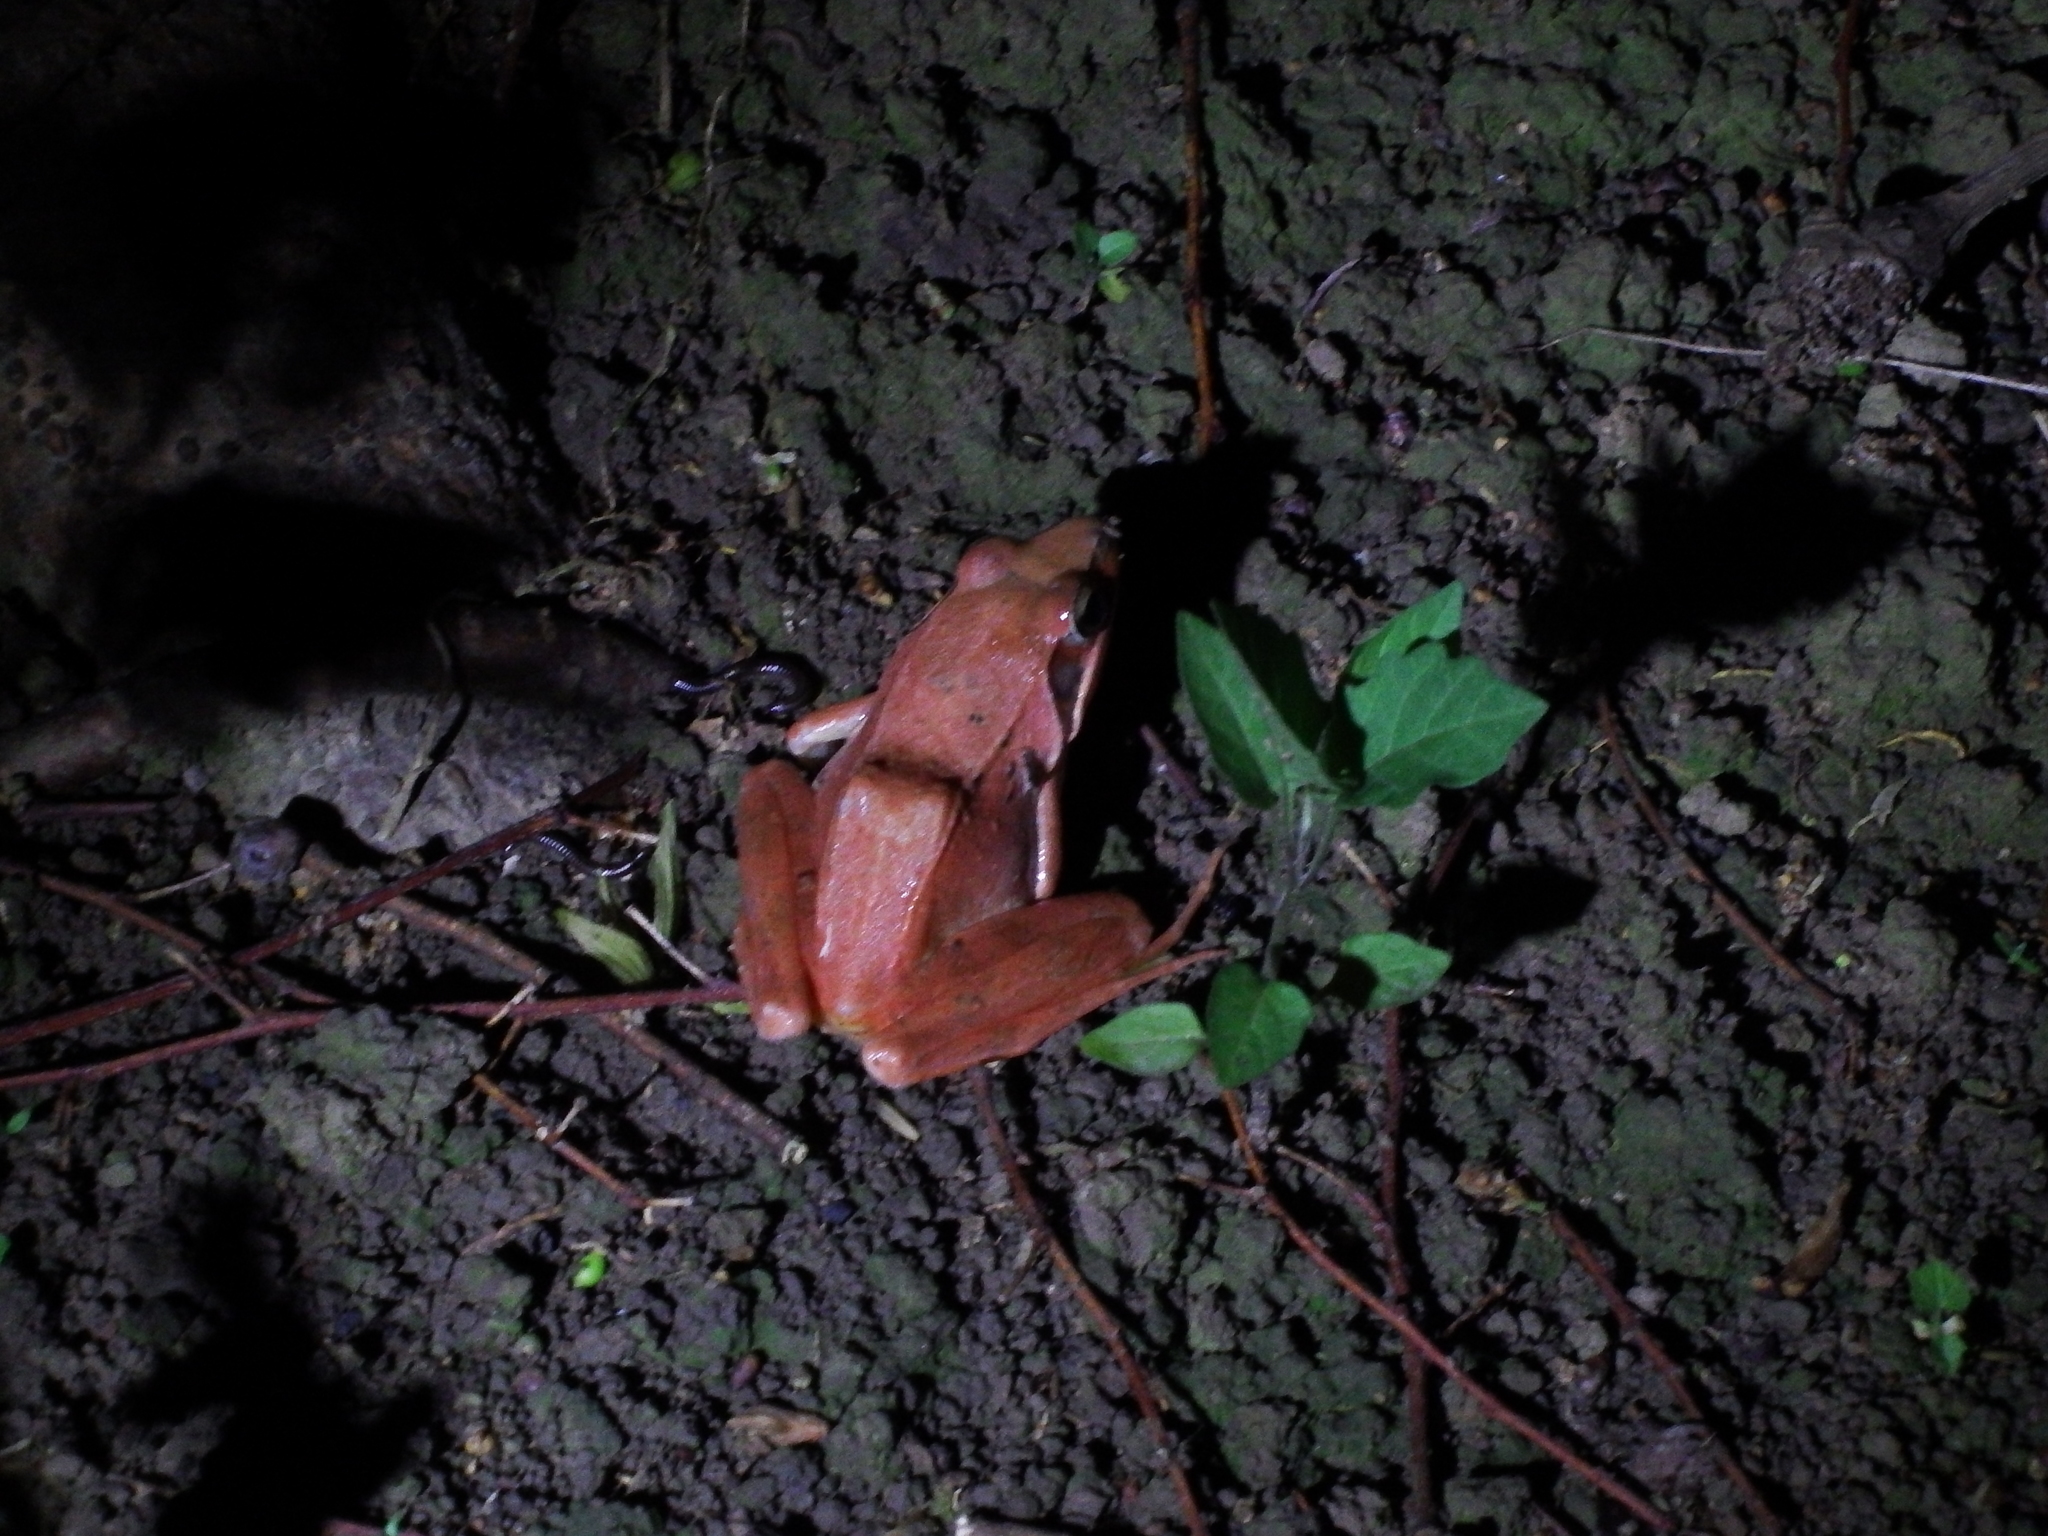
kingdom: Animalia
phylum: Chordata
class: Amphibia
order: Anura
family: Ranidae
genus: Rana
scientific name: Rana longicrus
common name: Long-legged brown frog
